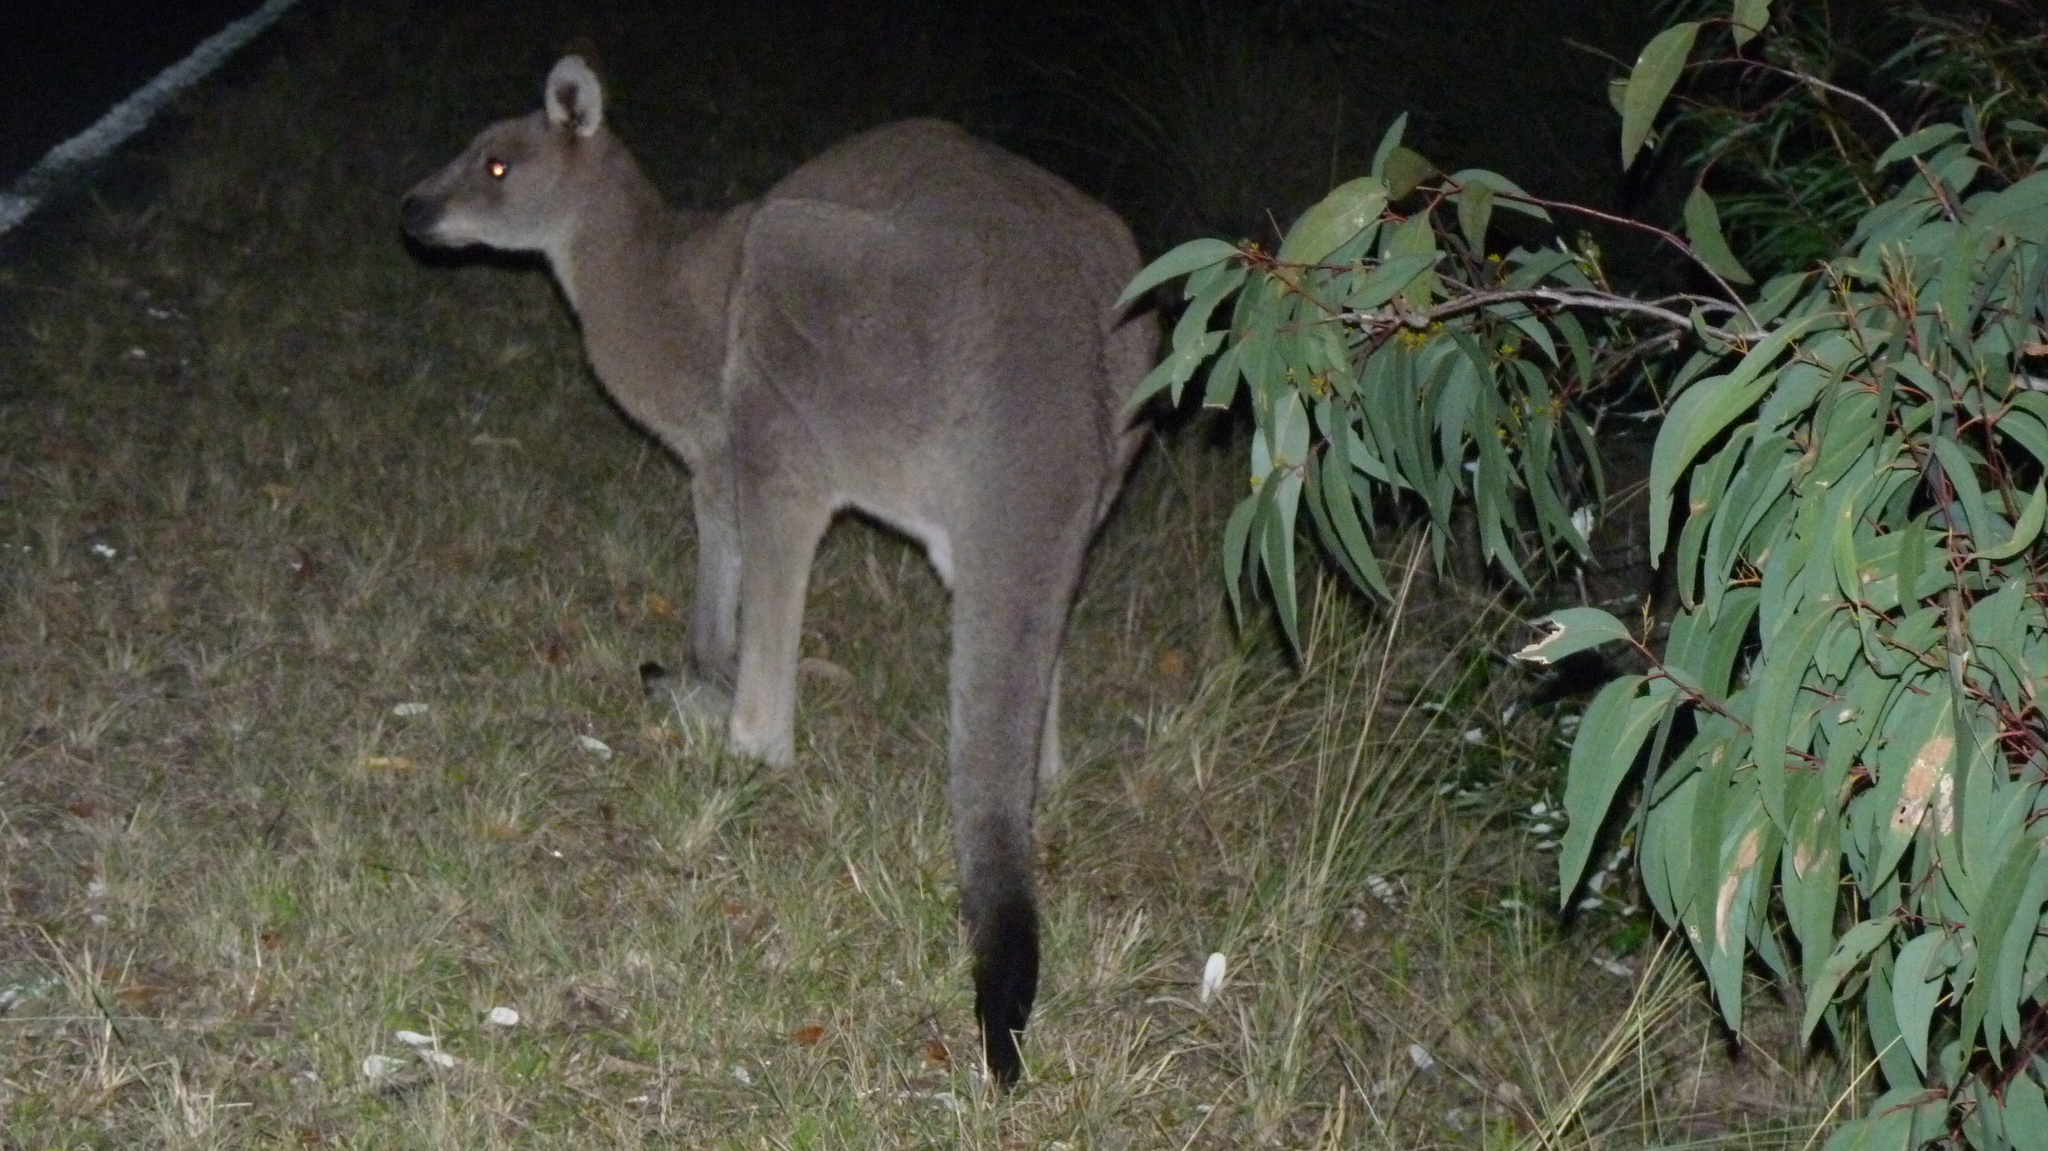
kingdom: Animalia
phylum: Chordata
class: Mammalia
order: Diprotodontia
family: Macropodidae
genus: Macropus
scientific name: Macropus giganteus
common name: Eastern grey kangaroo
